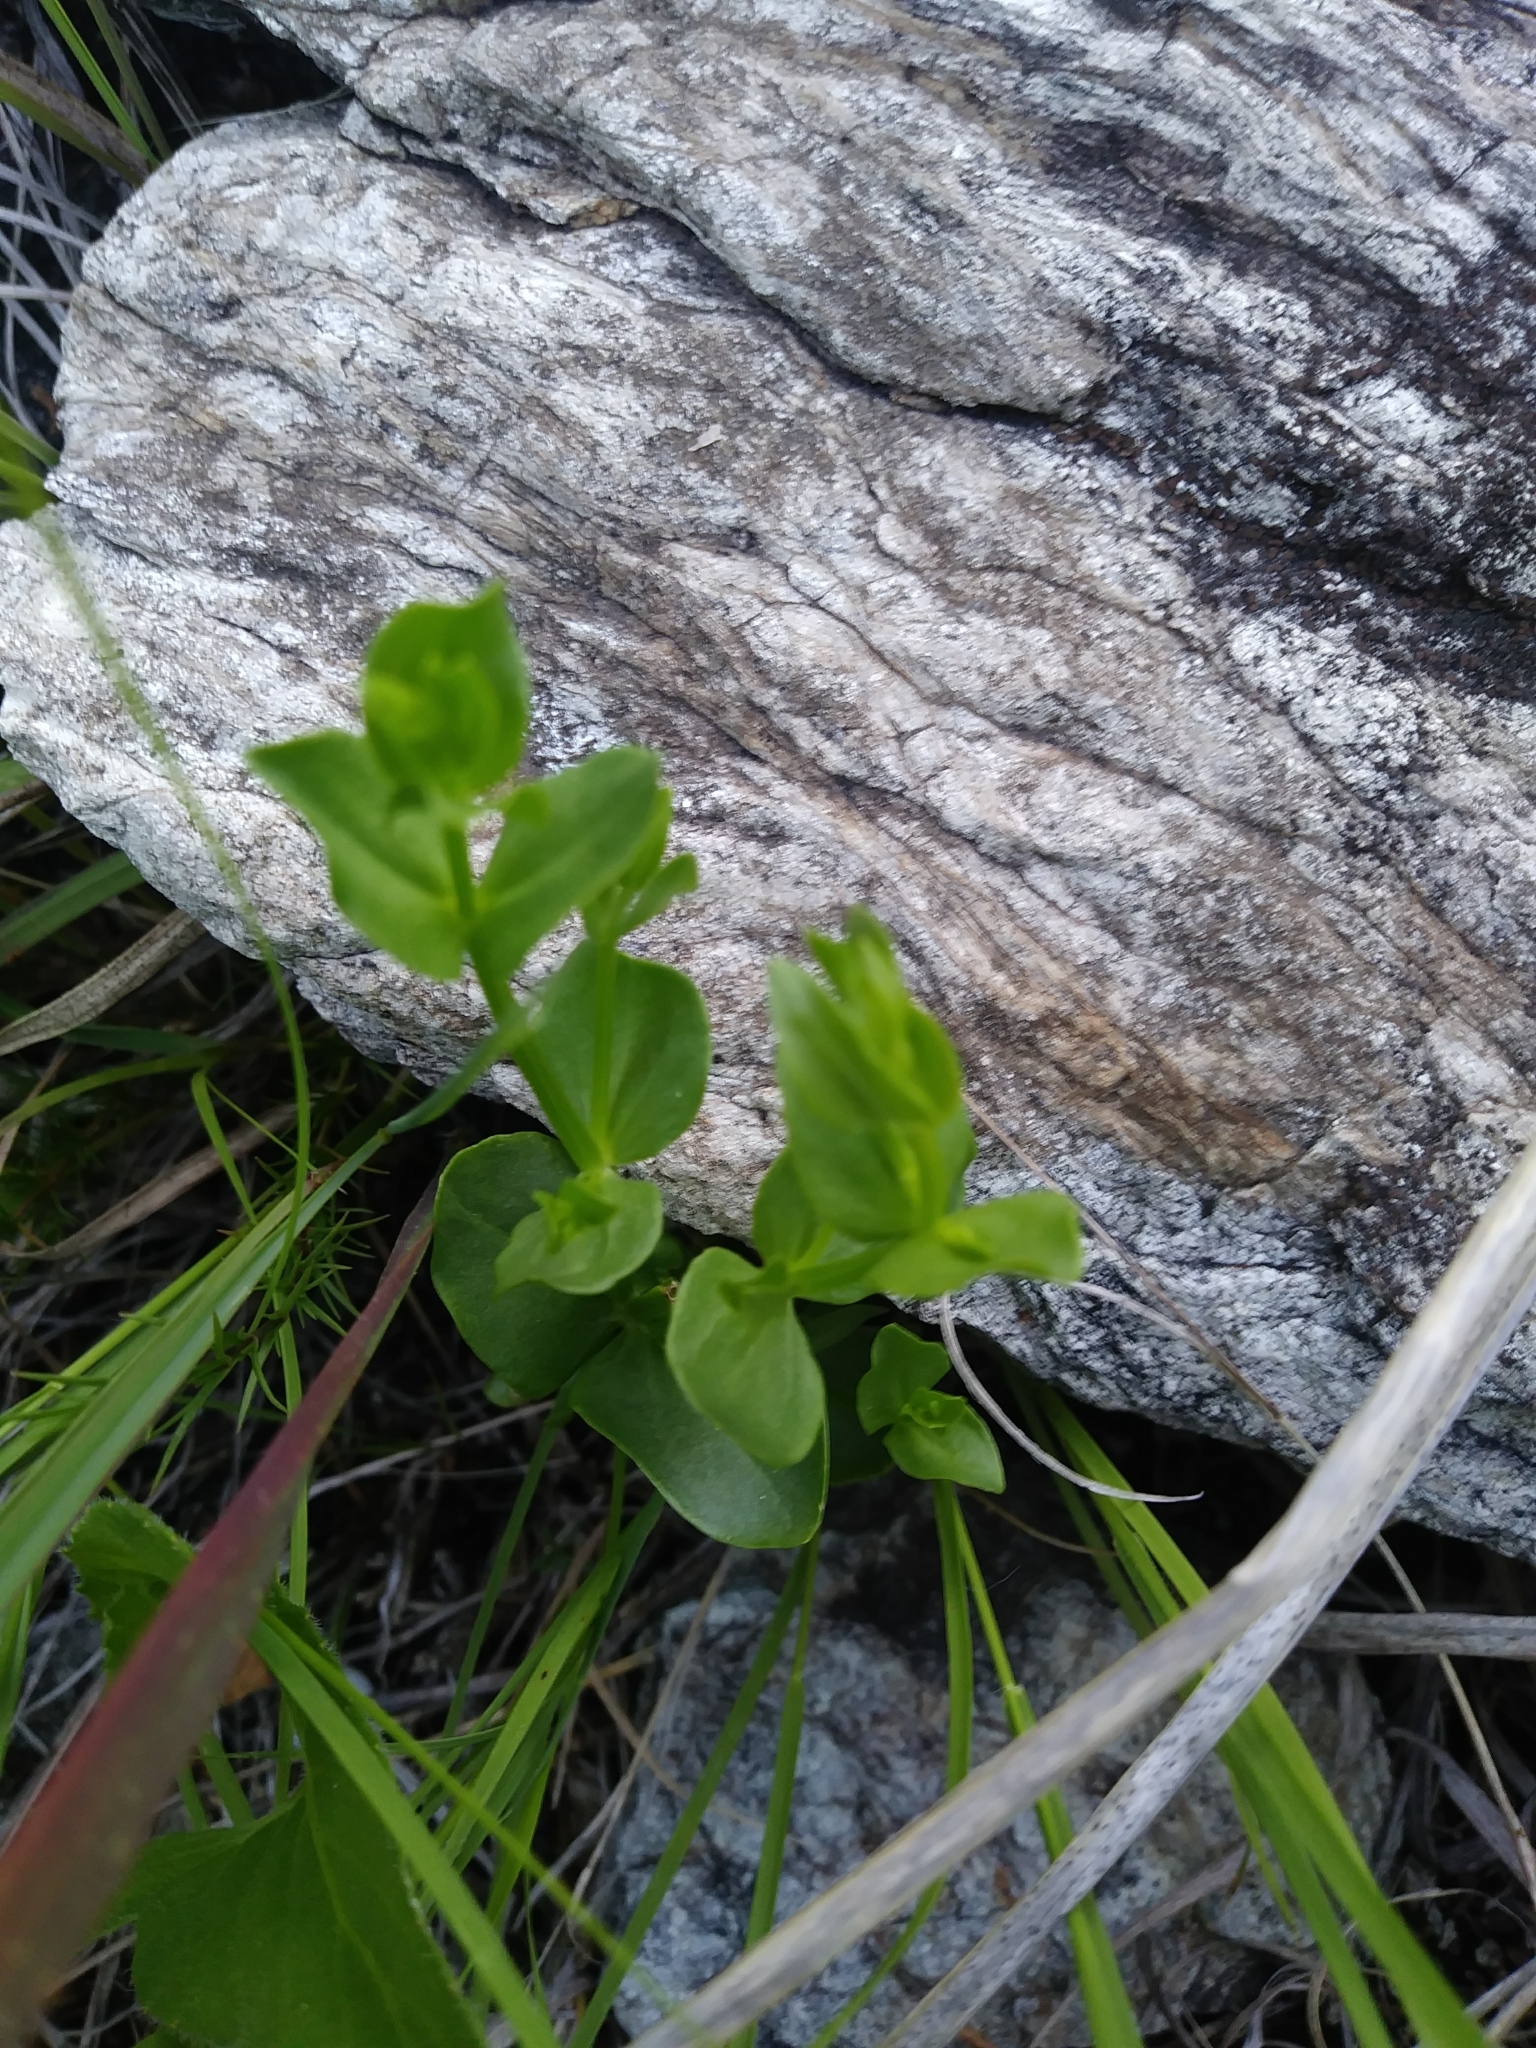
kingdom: Plantae
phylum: Tracheophyta
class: Magnoliopsida
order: Gentianales
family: Gentianaceae
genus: Sabatia
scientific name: Sabatia angularis
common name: Rose-pink
